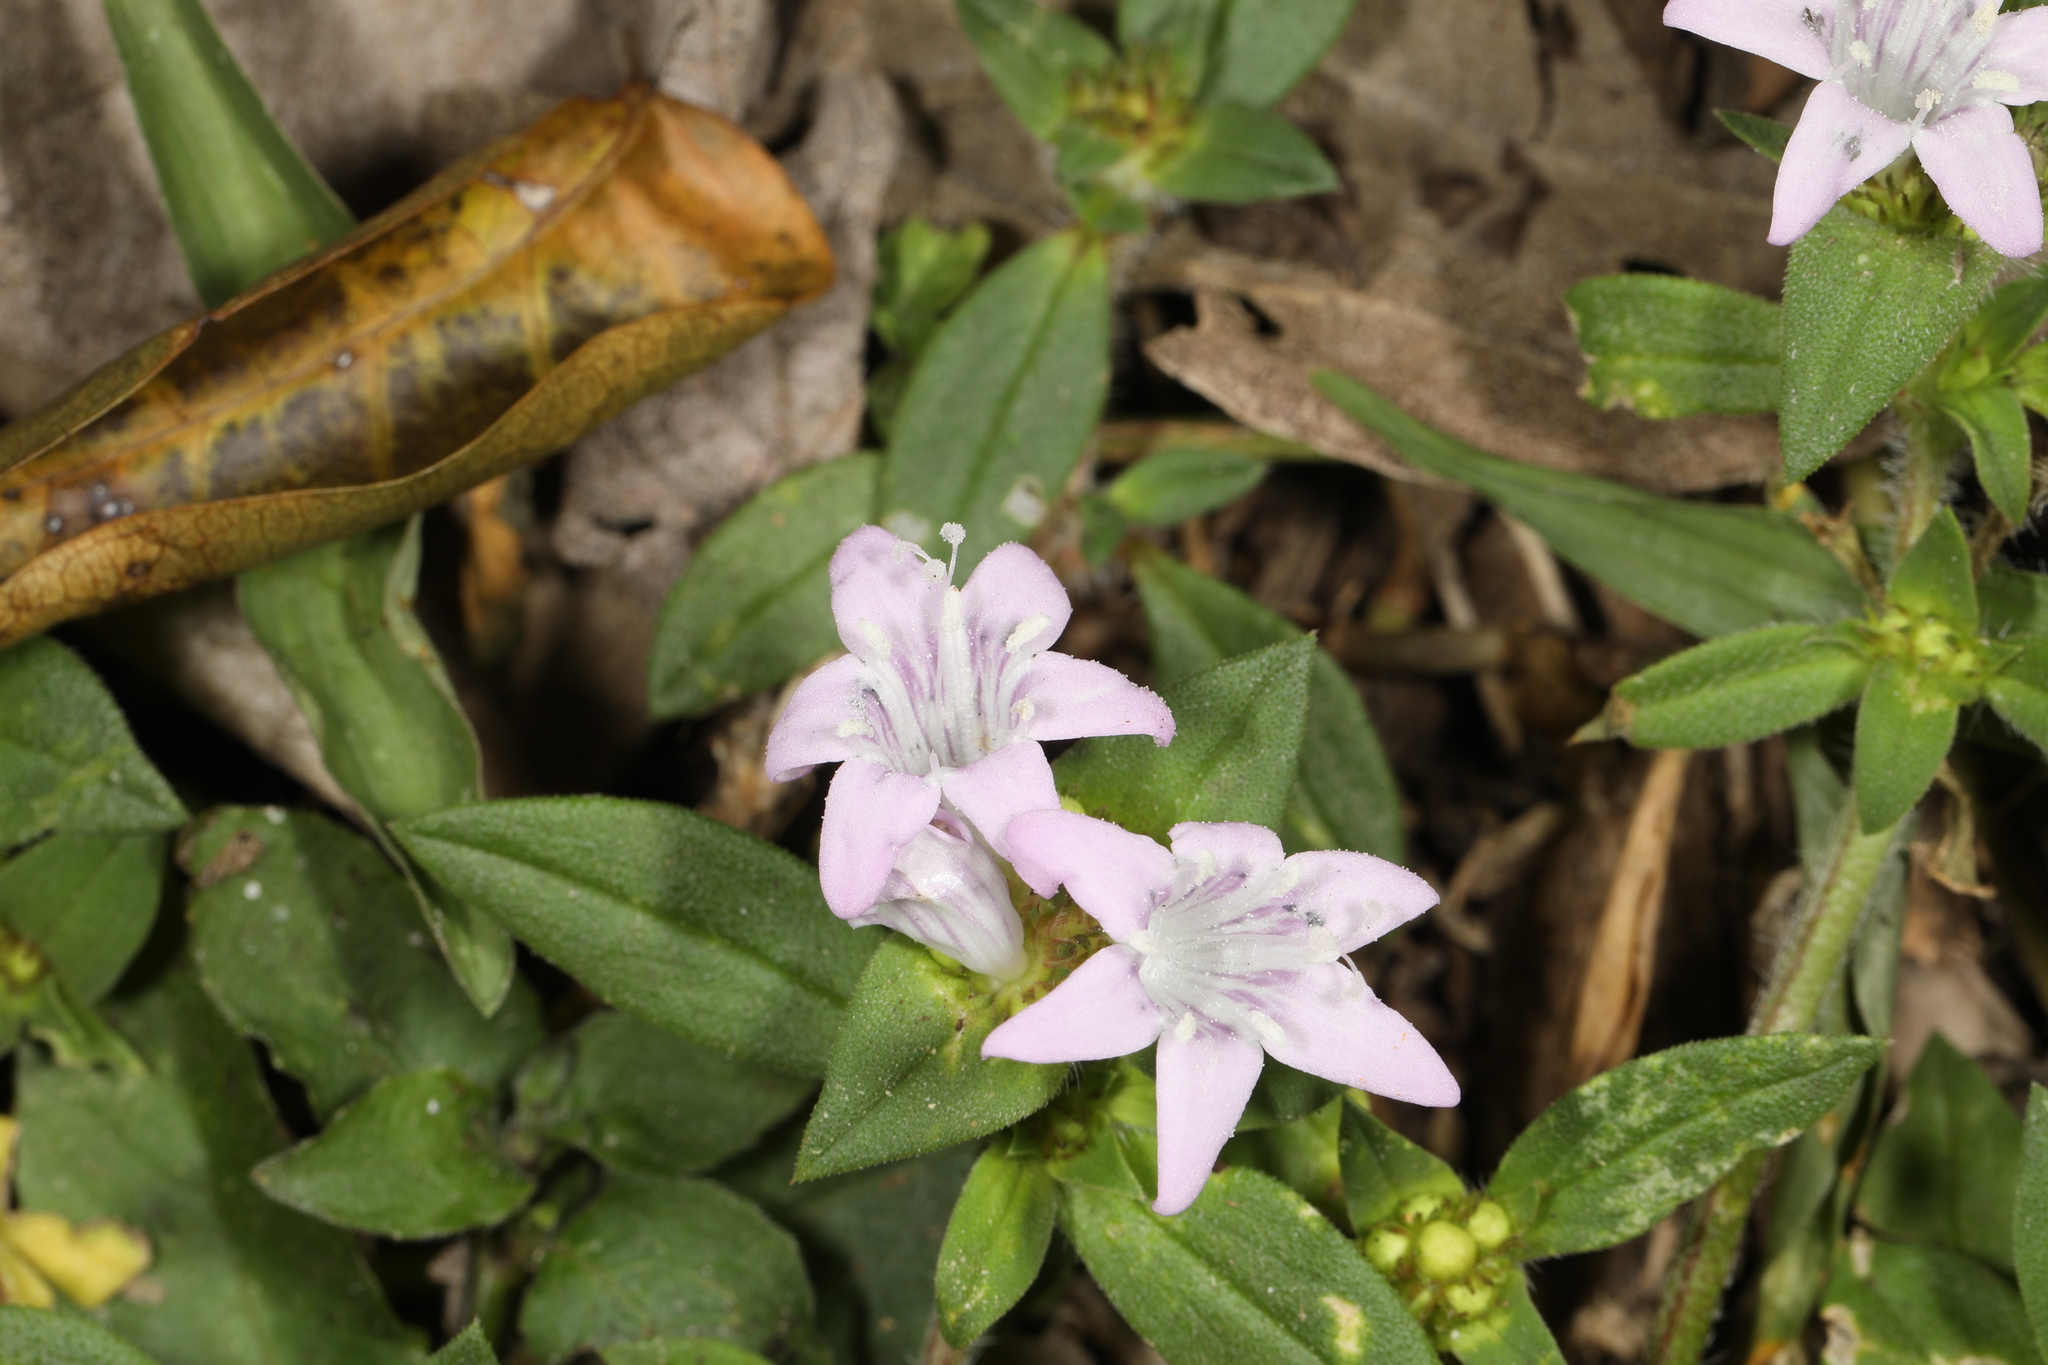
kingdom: Plantae
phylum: Tracheophyta
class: Magnoliopsida
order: Gentianales
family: Rubiaceae
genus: Richardia
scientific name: Richardia grandiflora
